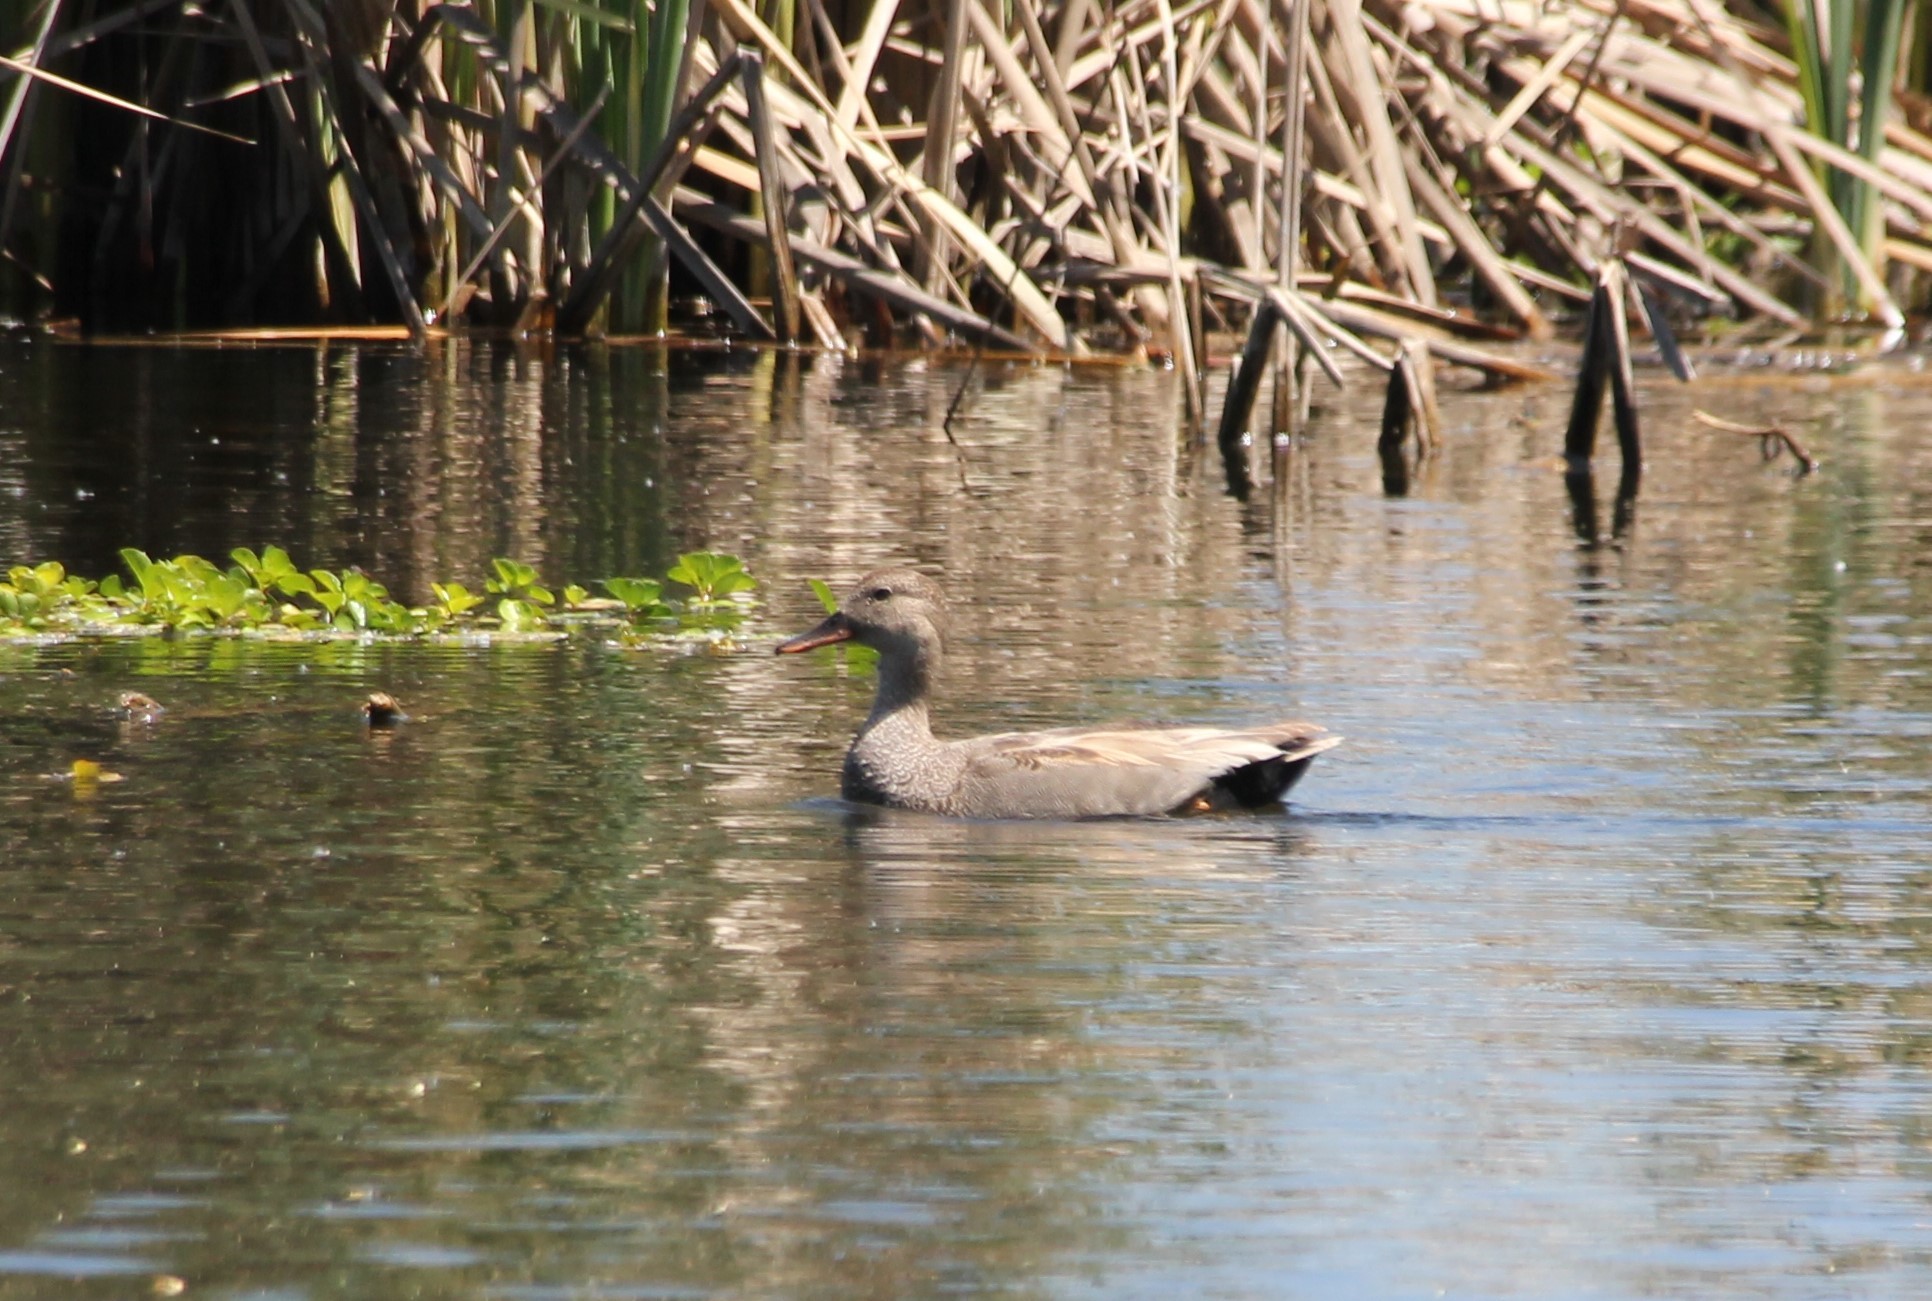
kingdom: Animalia
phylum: Chordata
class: Aves
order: Anseriformes
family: Anatidae
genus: Mareca
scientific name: Mareca strepera
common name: Gadwall
